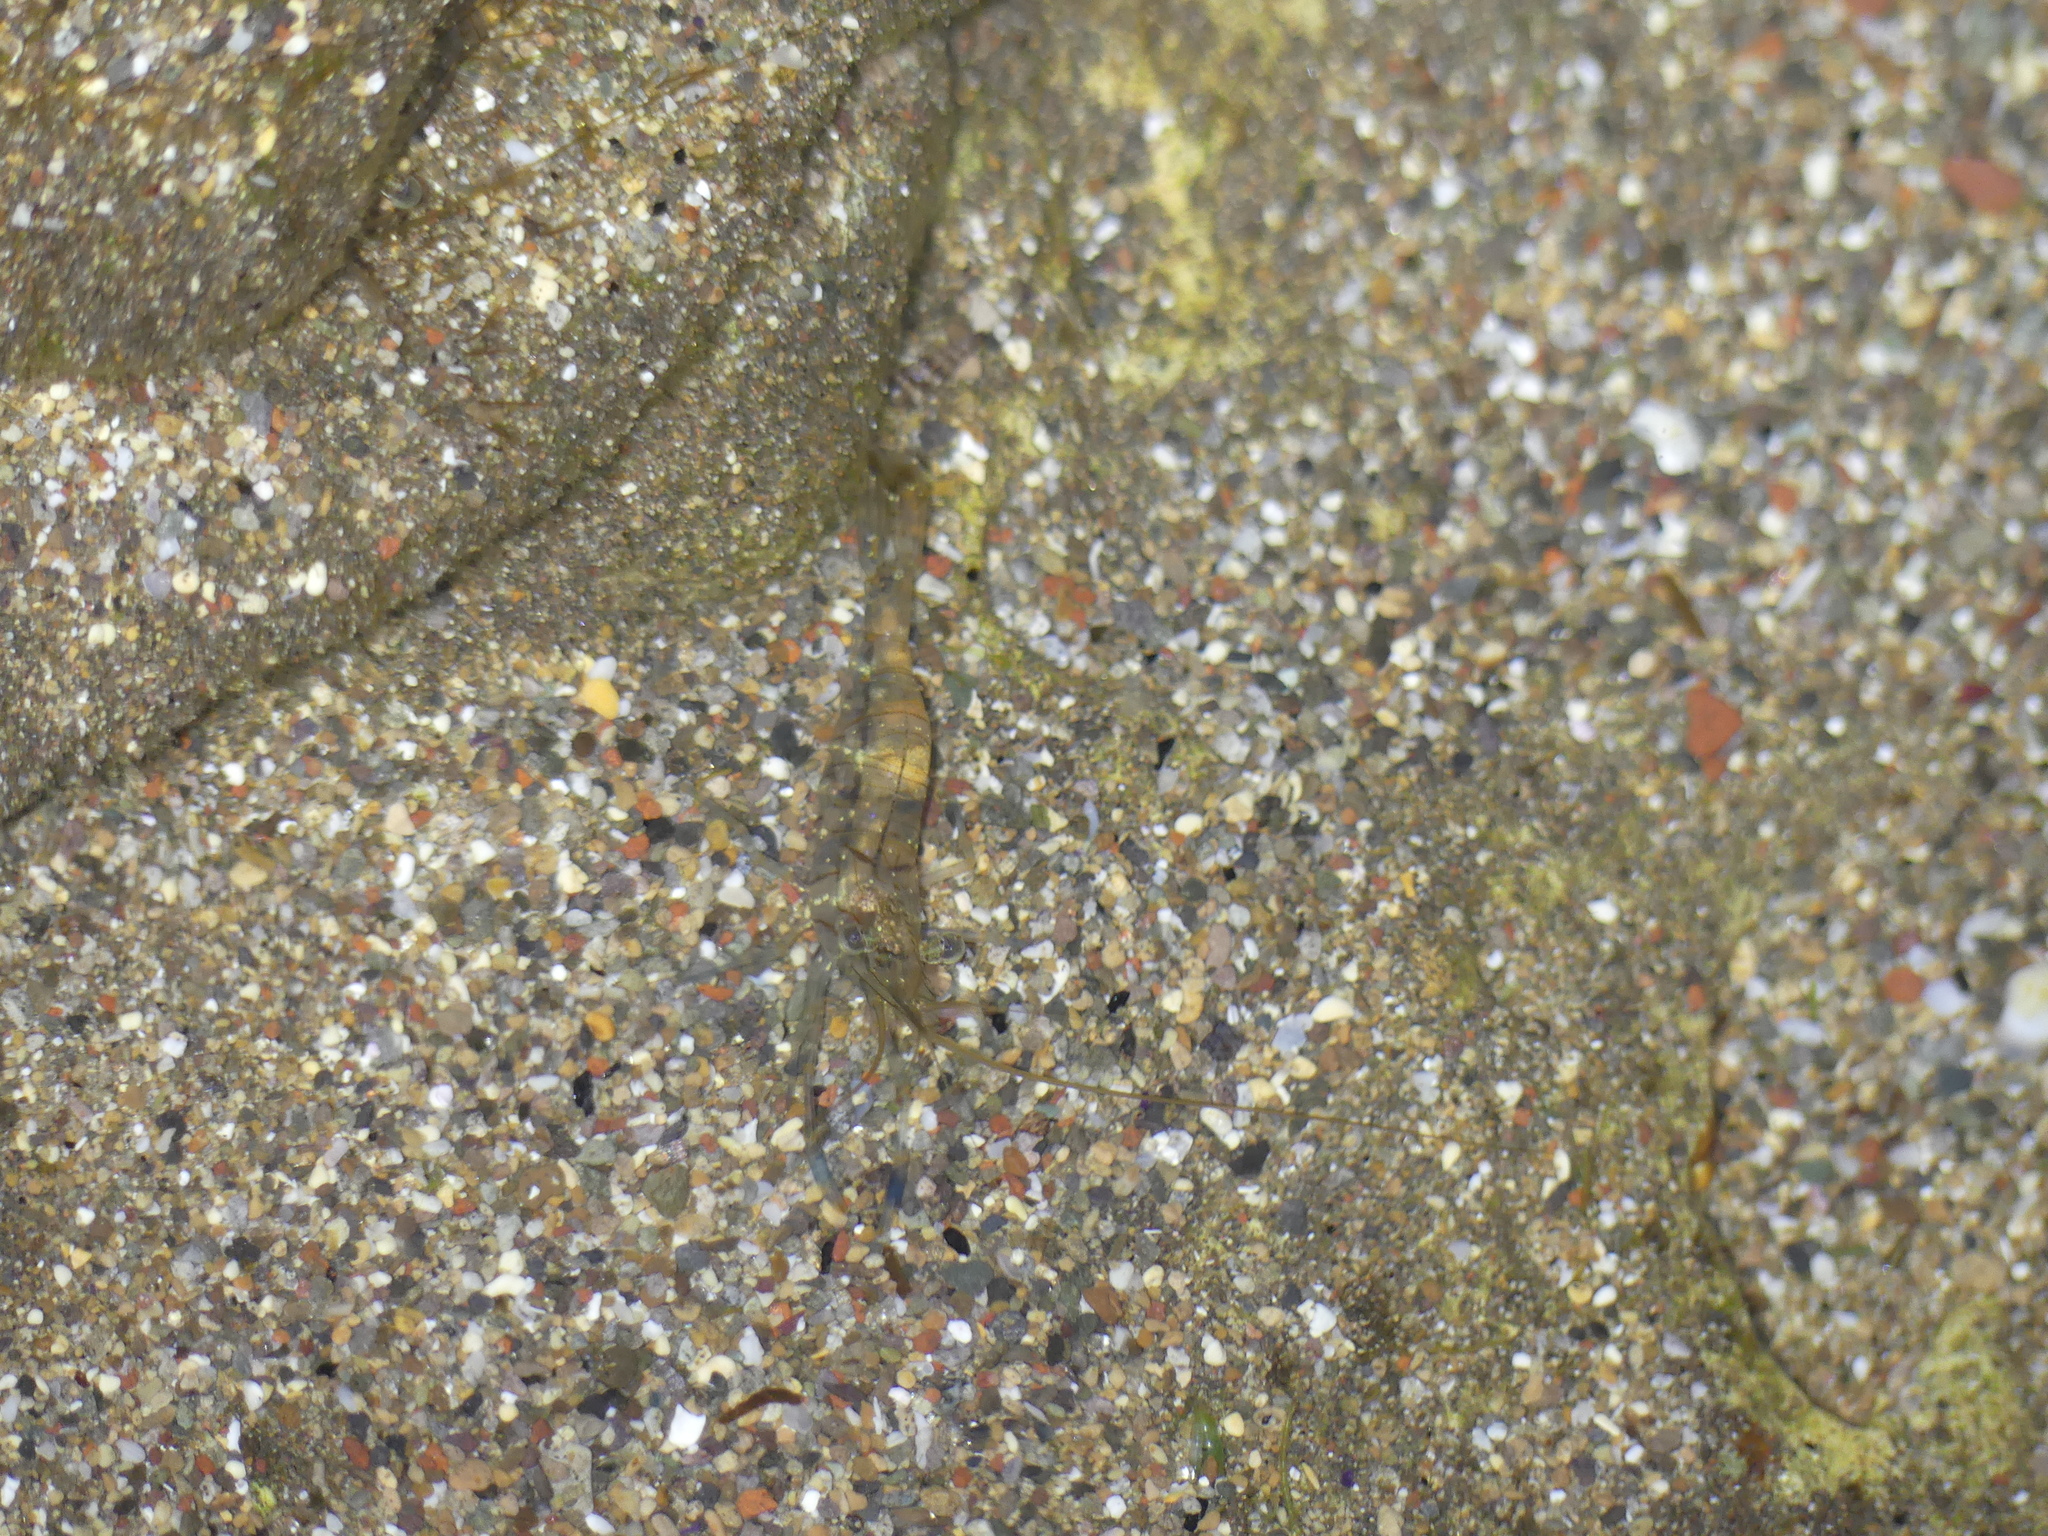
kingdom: Animalia
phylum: Arthropoda
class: Malacostraca
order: Decapoda
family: Palaemonidae
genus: Palaemon
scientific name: Palaemon elegans
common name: Grass prawm
